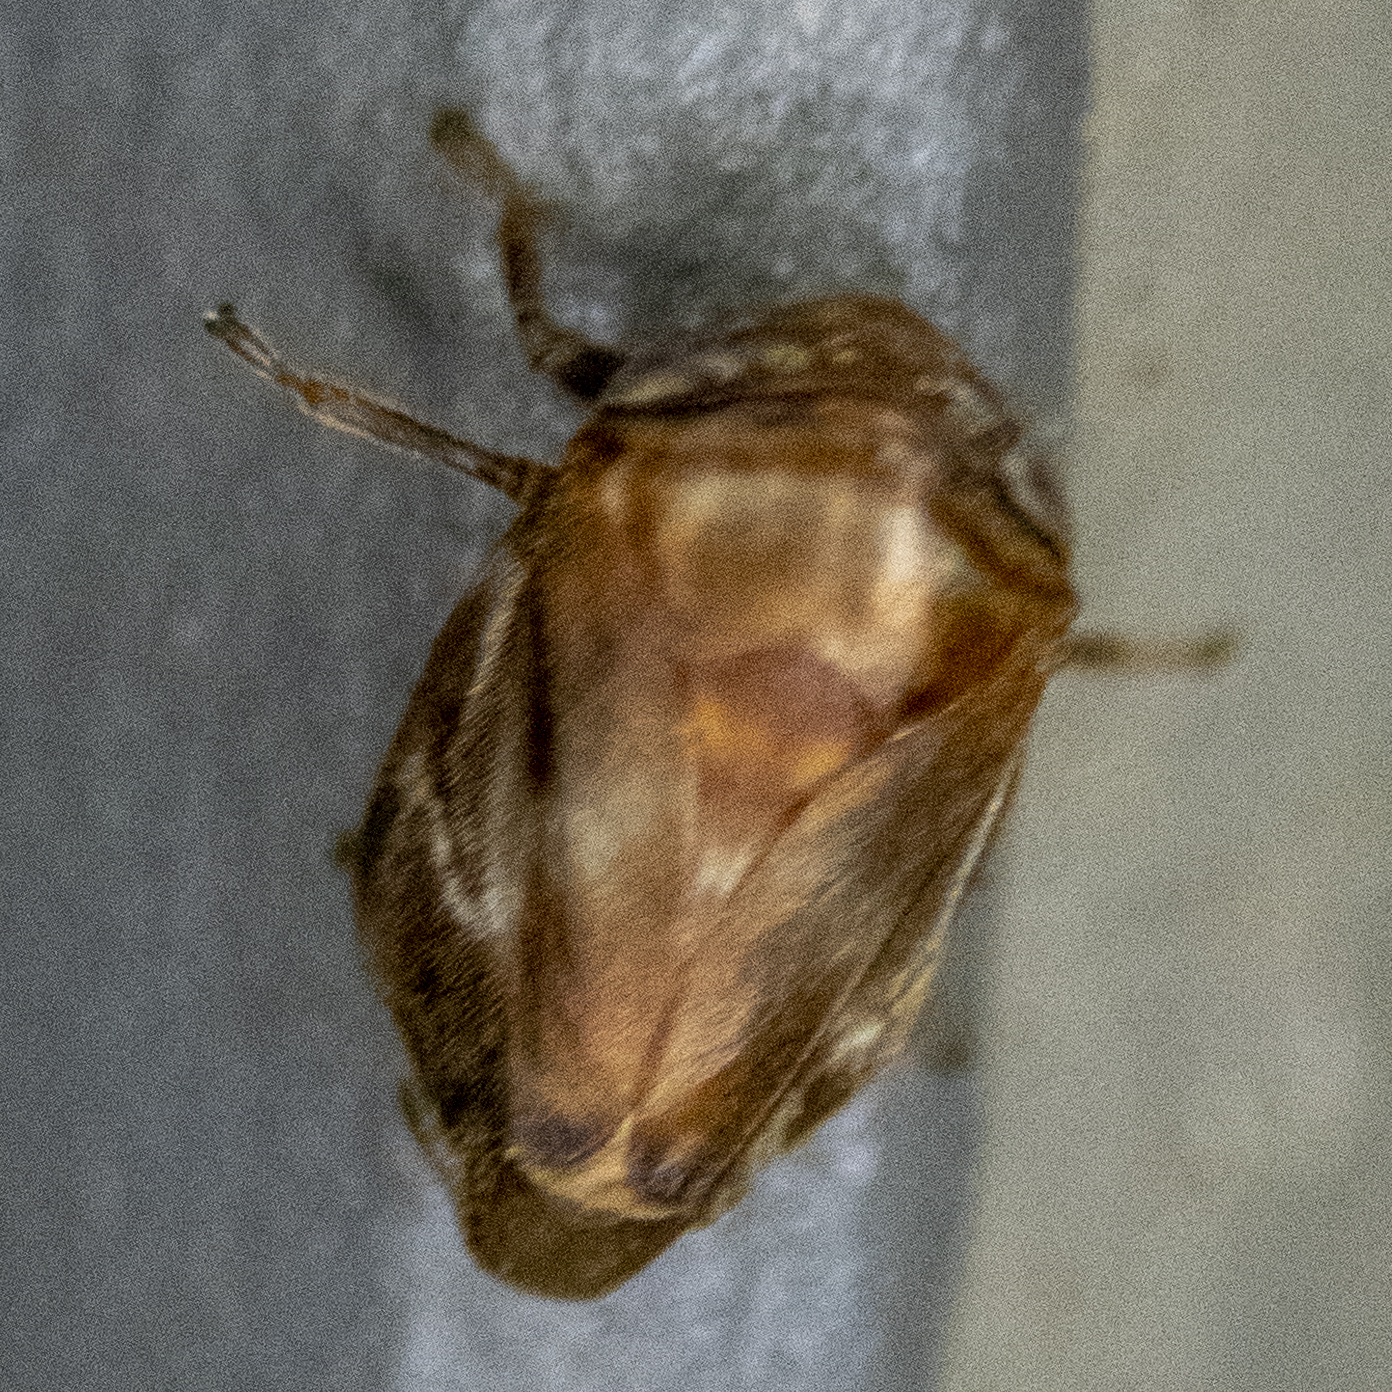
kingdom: Animalia
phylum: Arthropoda
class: Insecta
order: Hemiptera
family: Clastopteridae
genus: Clastoptera
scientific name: Clastoptera obtusa
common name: Alder spittlebug
